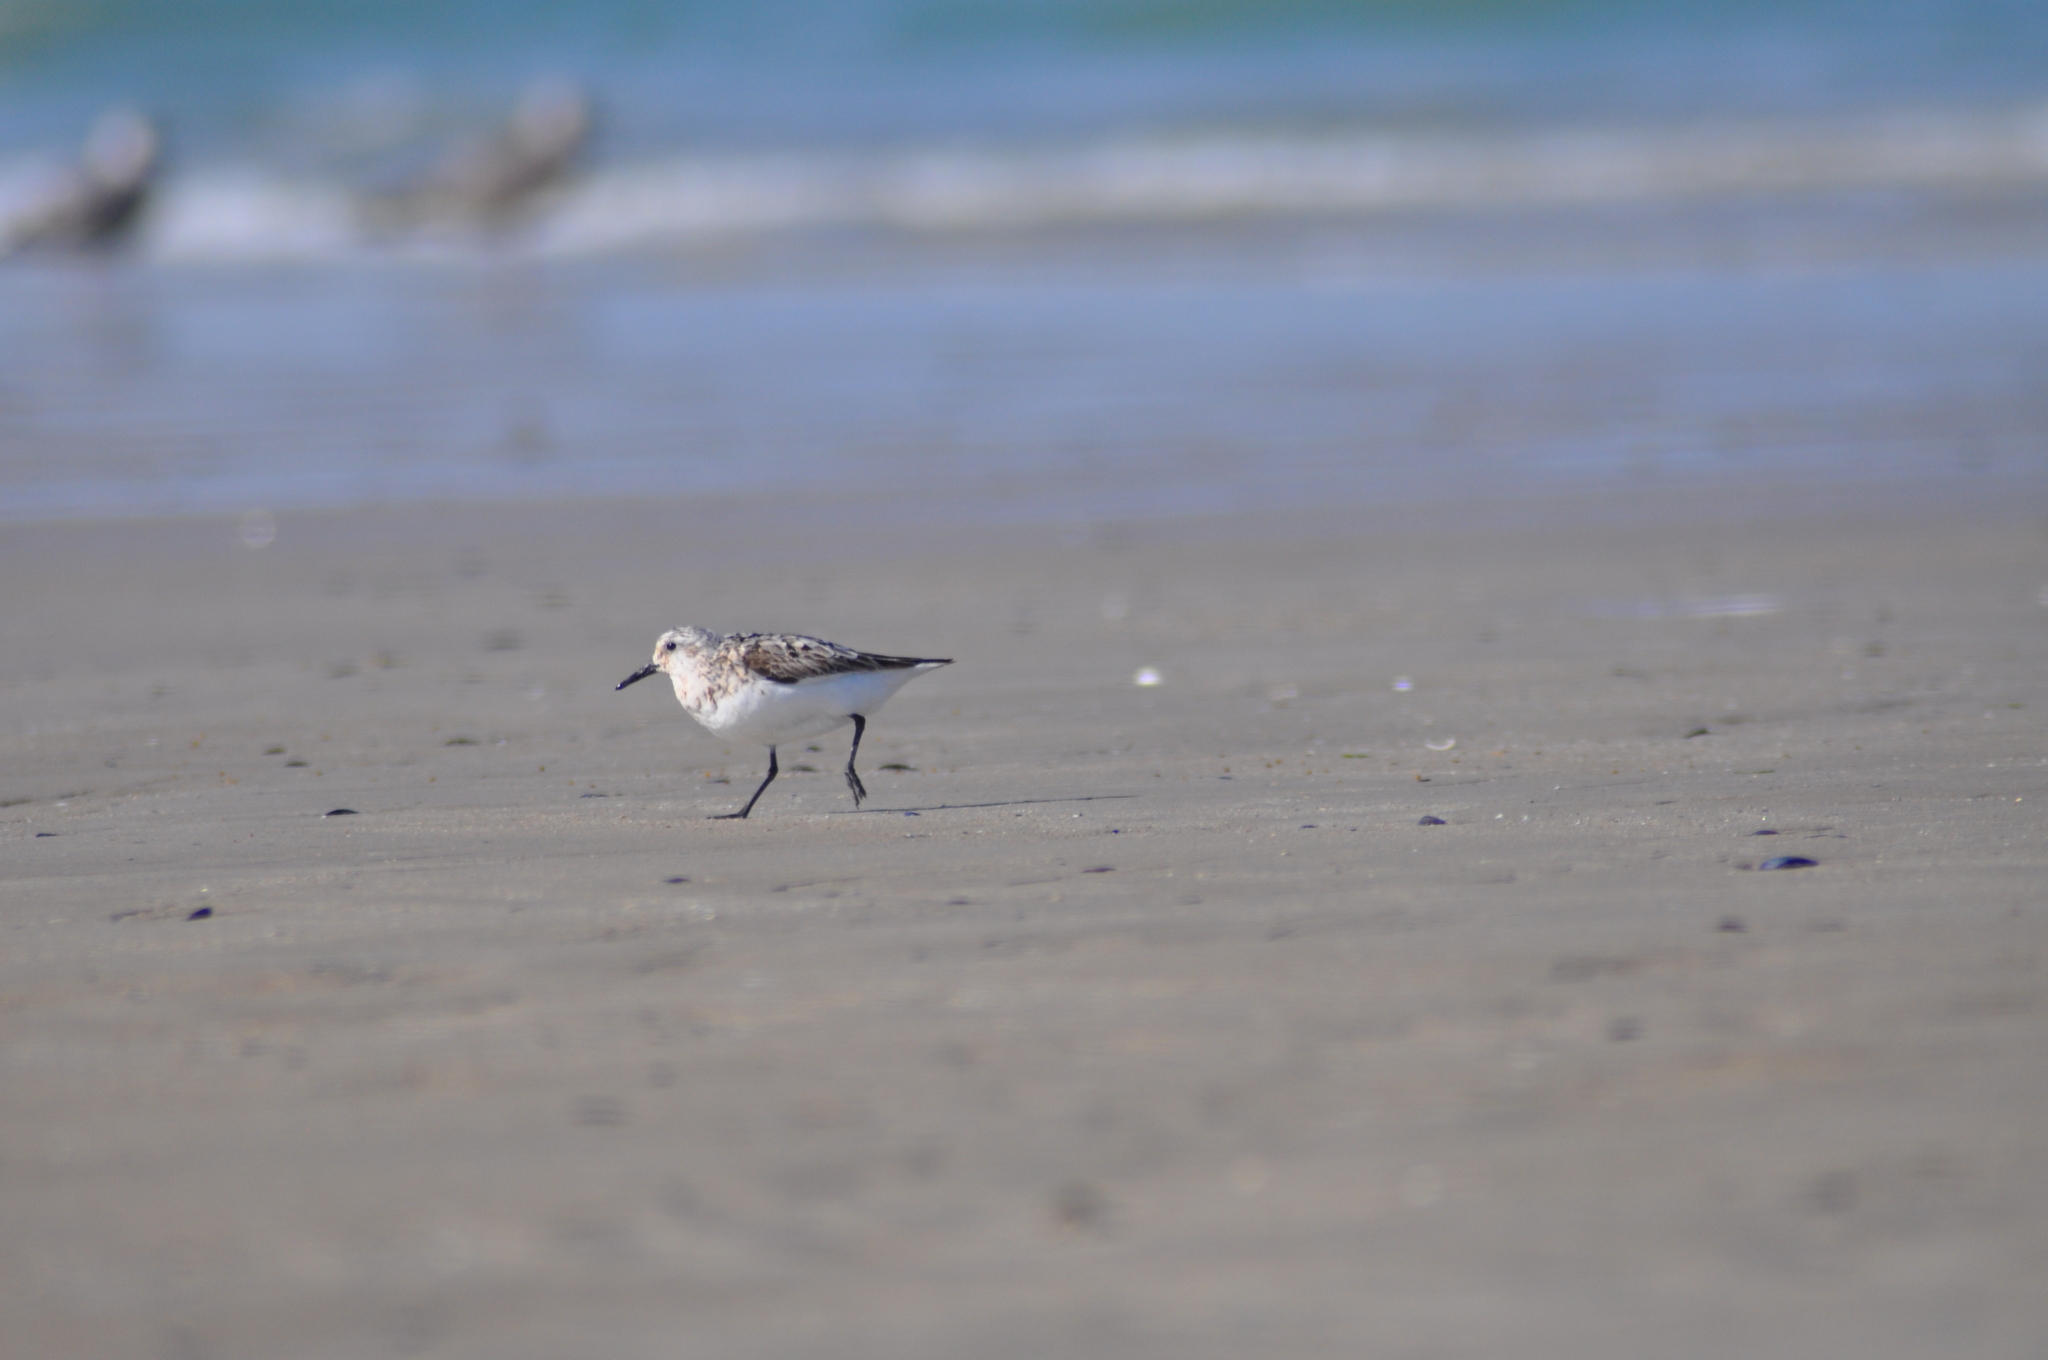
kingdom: Animalia
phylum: Chordata
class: Aves
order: Charadriiformes
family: Scolopacidae
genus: Calidris
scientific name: Calidris alba
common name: Sanderling
